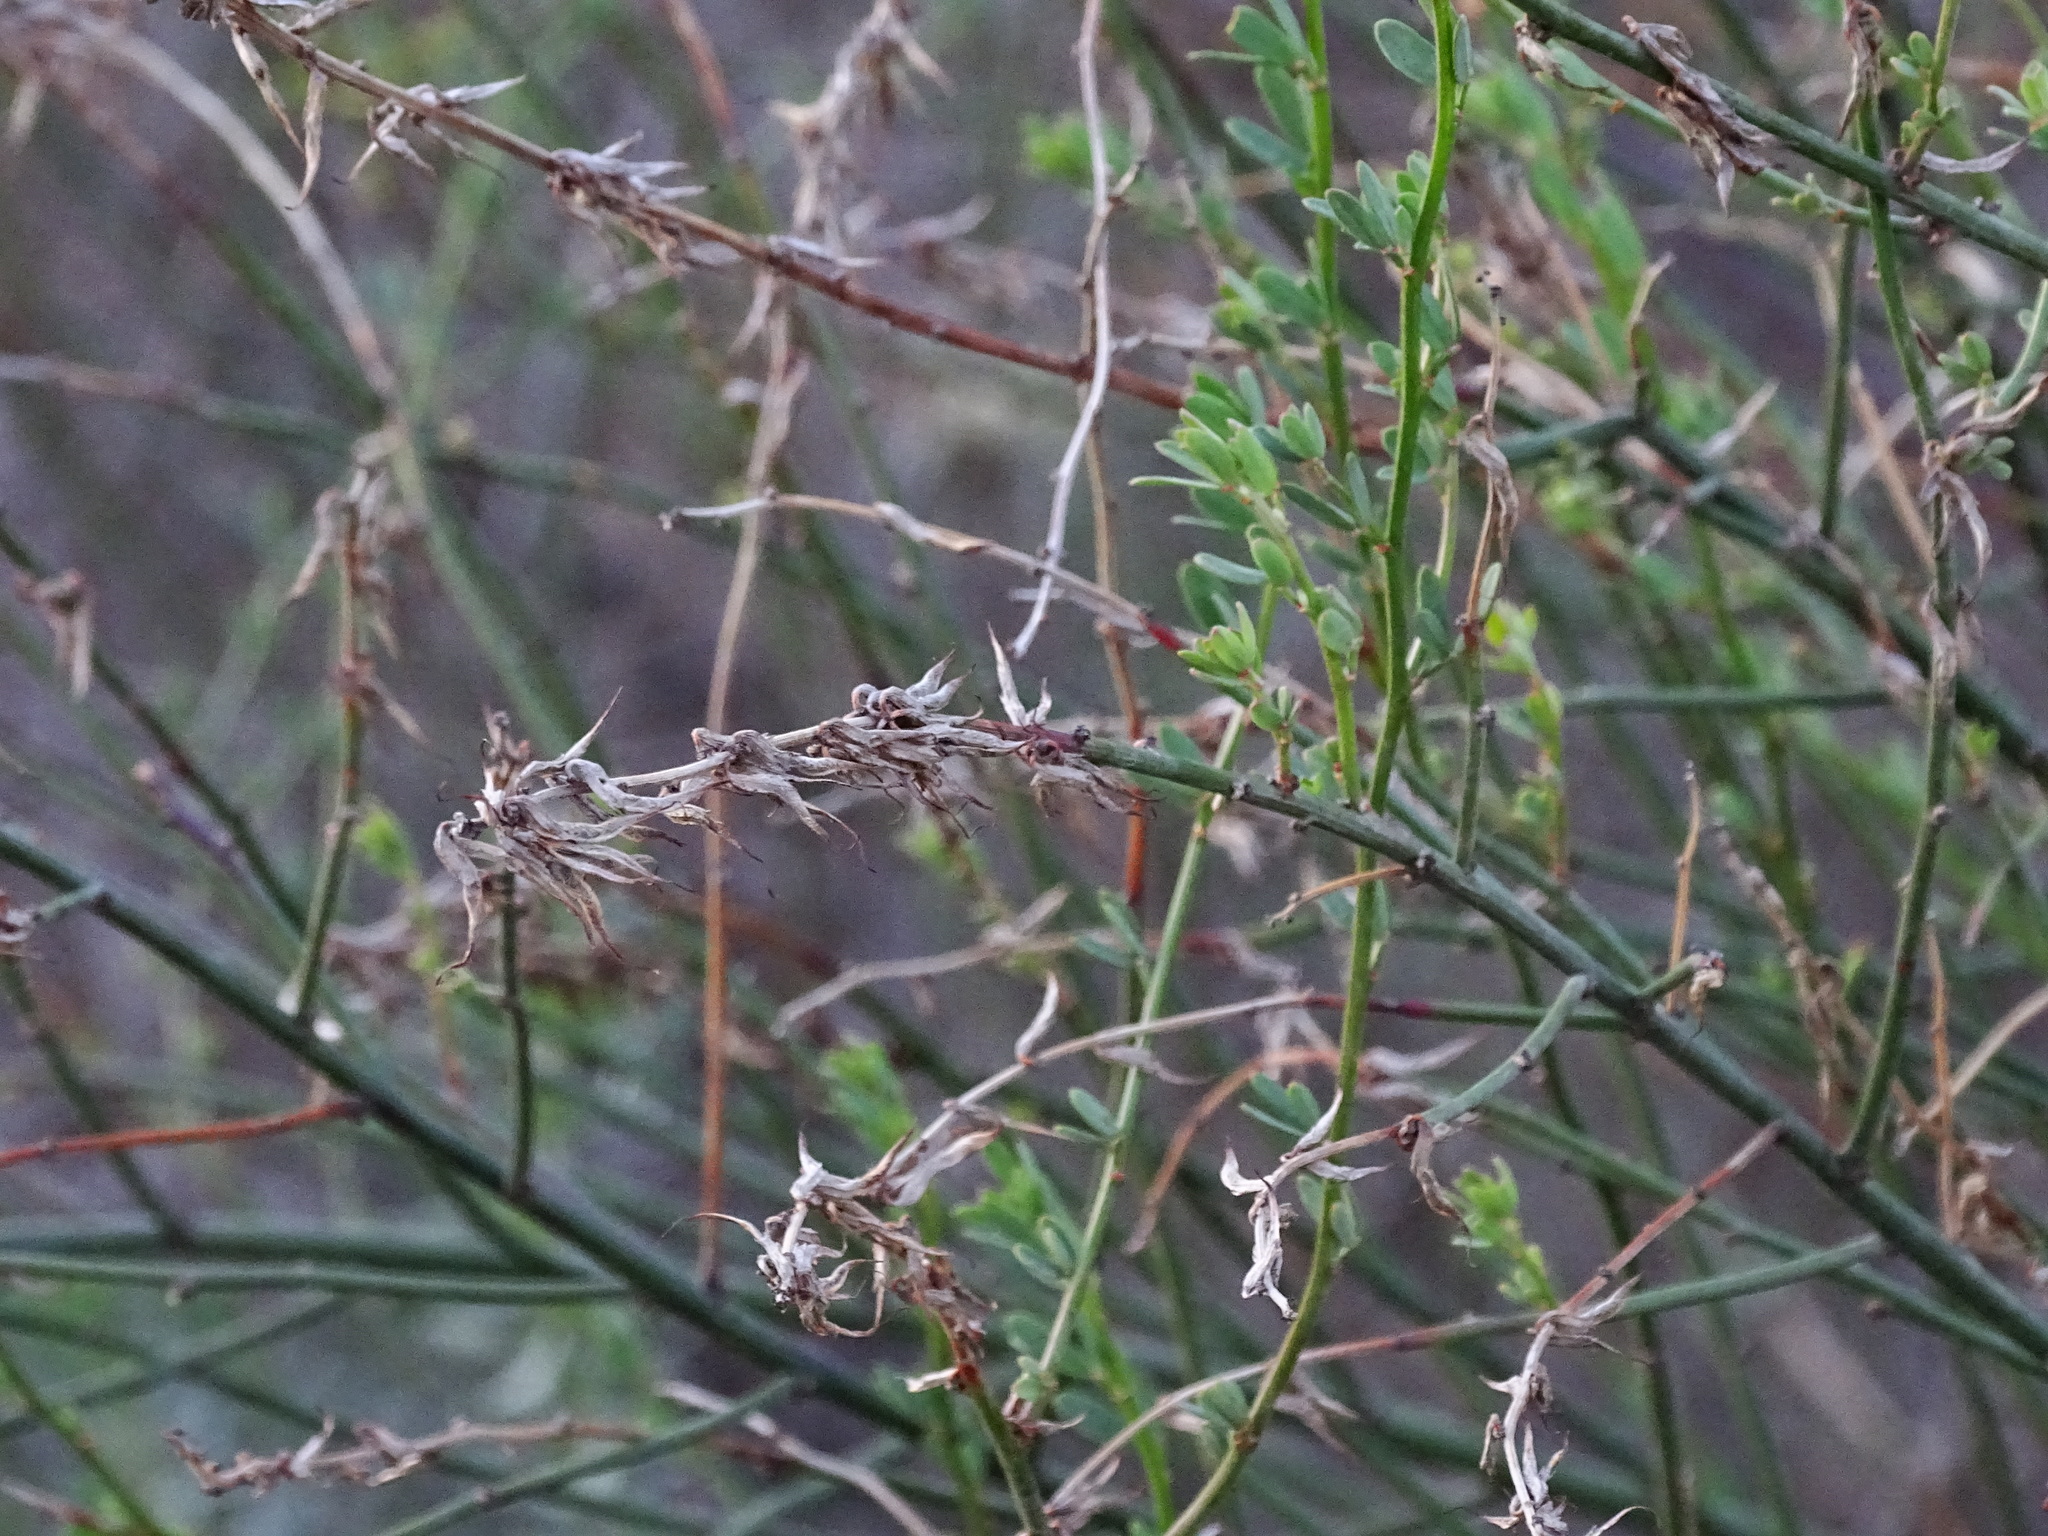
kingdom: Plantae
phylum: Tracheophyta
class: Magnoliopsida
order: Fabales
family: Fabaceae
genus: Acmispon
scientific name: Acmispon glaber
